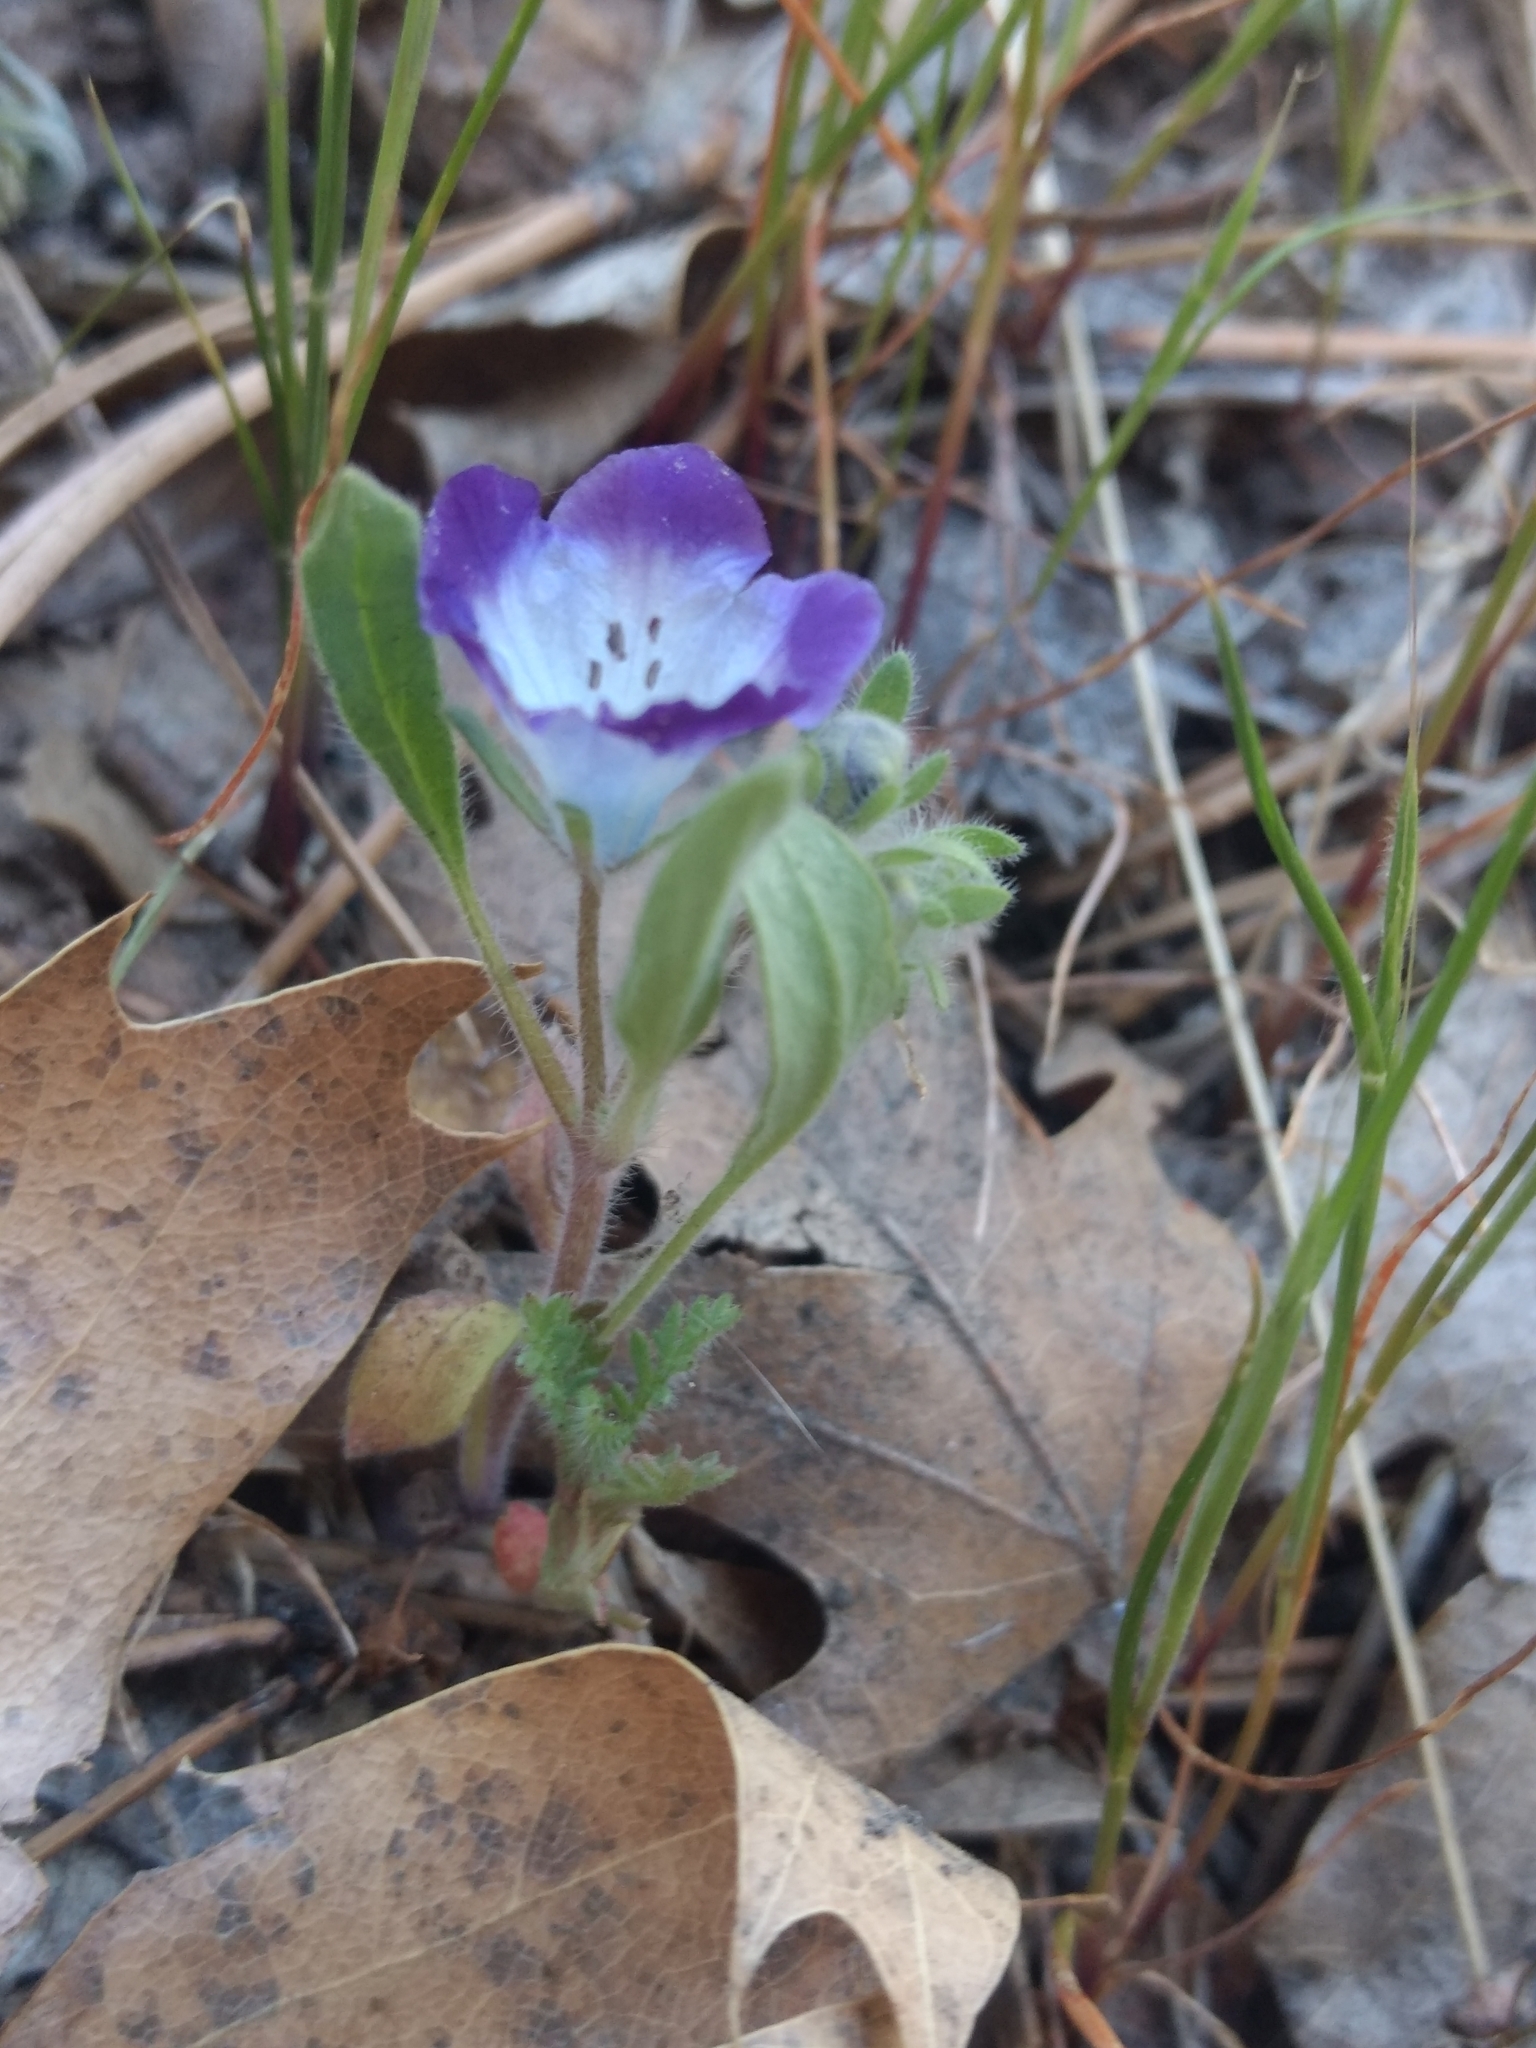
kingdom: Plantae
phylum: Tracheophyta
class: Magnoliopsida
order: Boraginales
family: Hydrophyllaceae
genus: Phacelia
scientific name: Phacelia davidsonii
